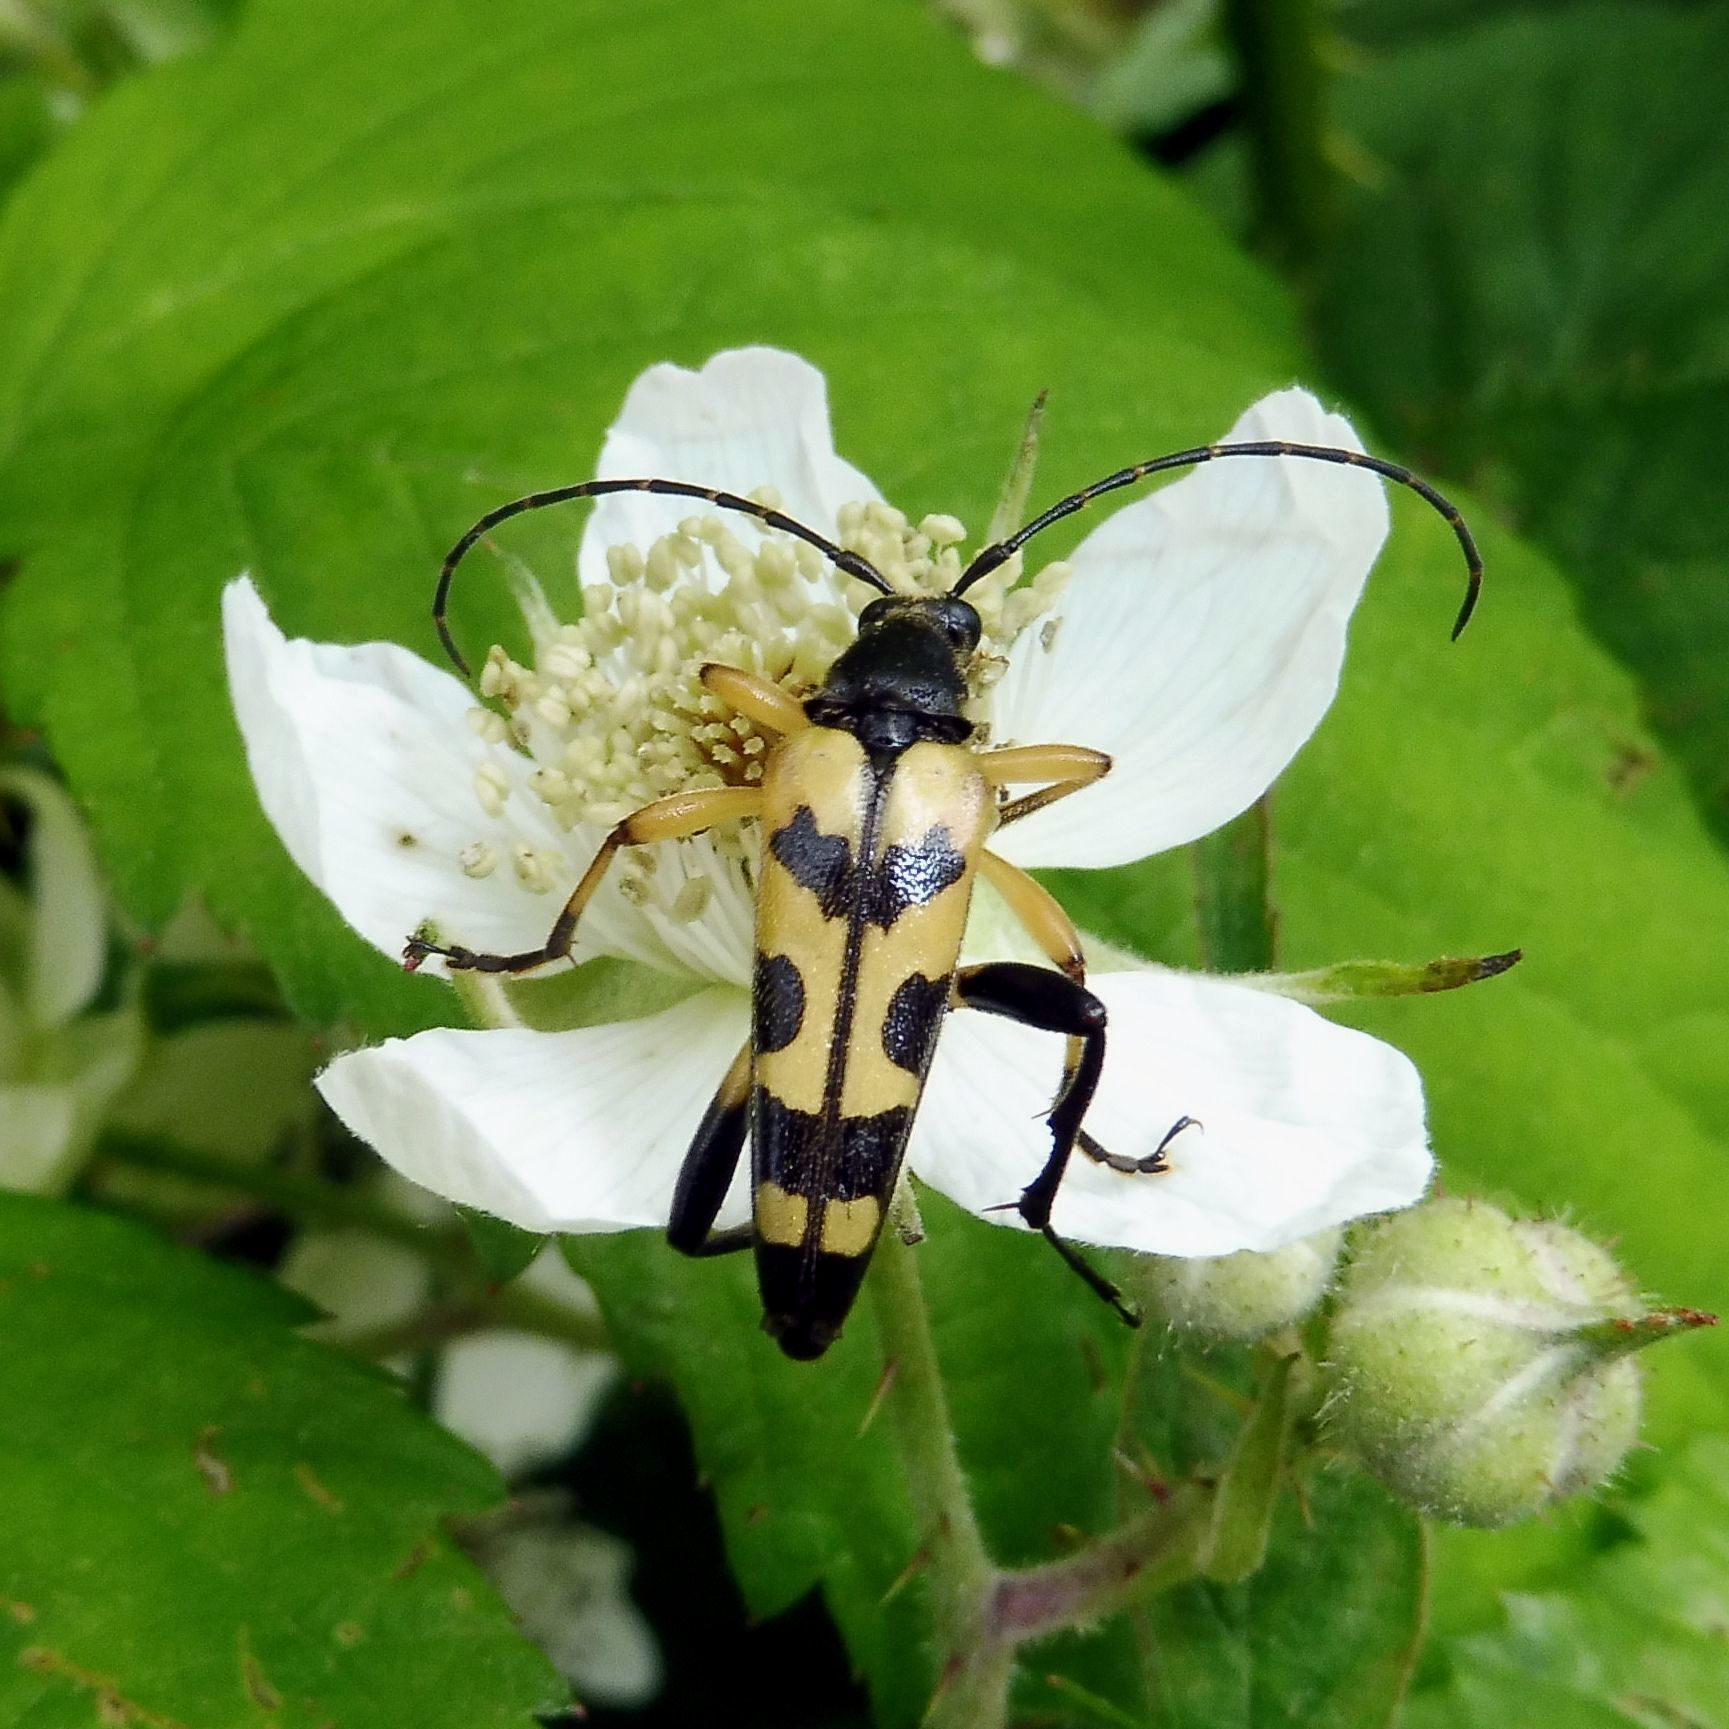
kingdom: Animalia
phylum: Arthropoda
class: Insecta
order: Coleoptera
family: Cerambycidae
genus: Rutpela
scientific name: Rutpela maculata
